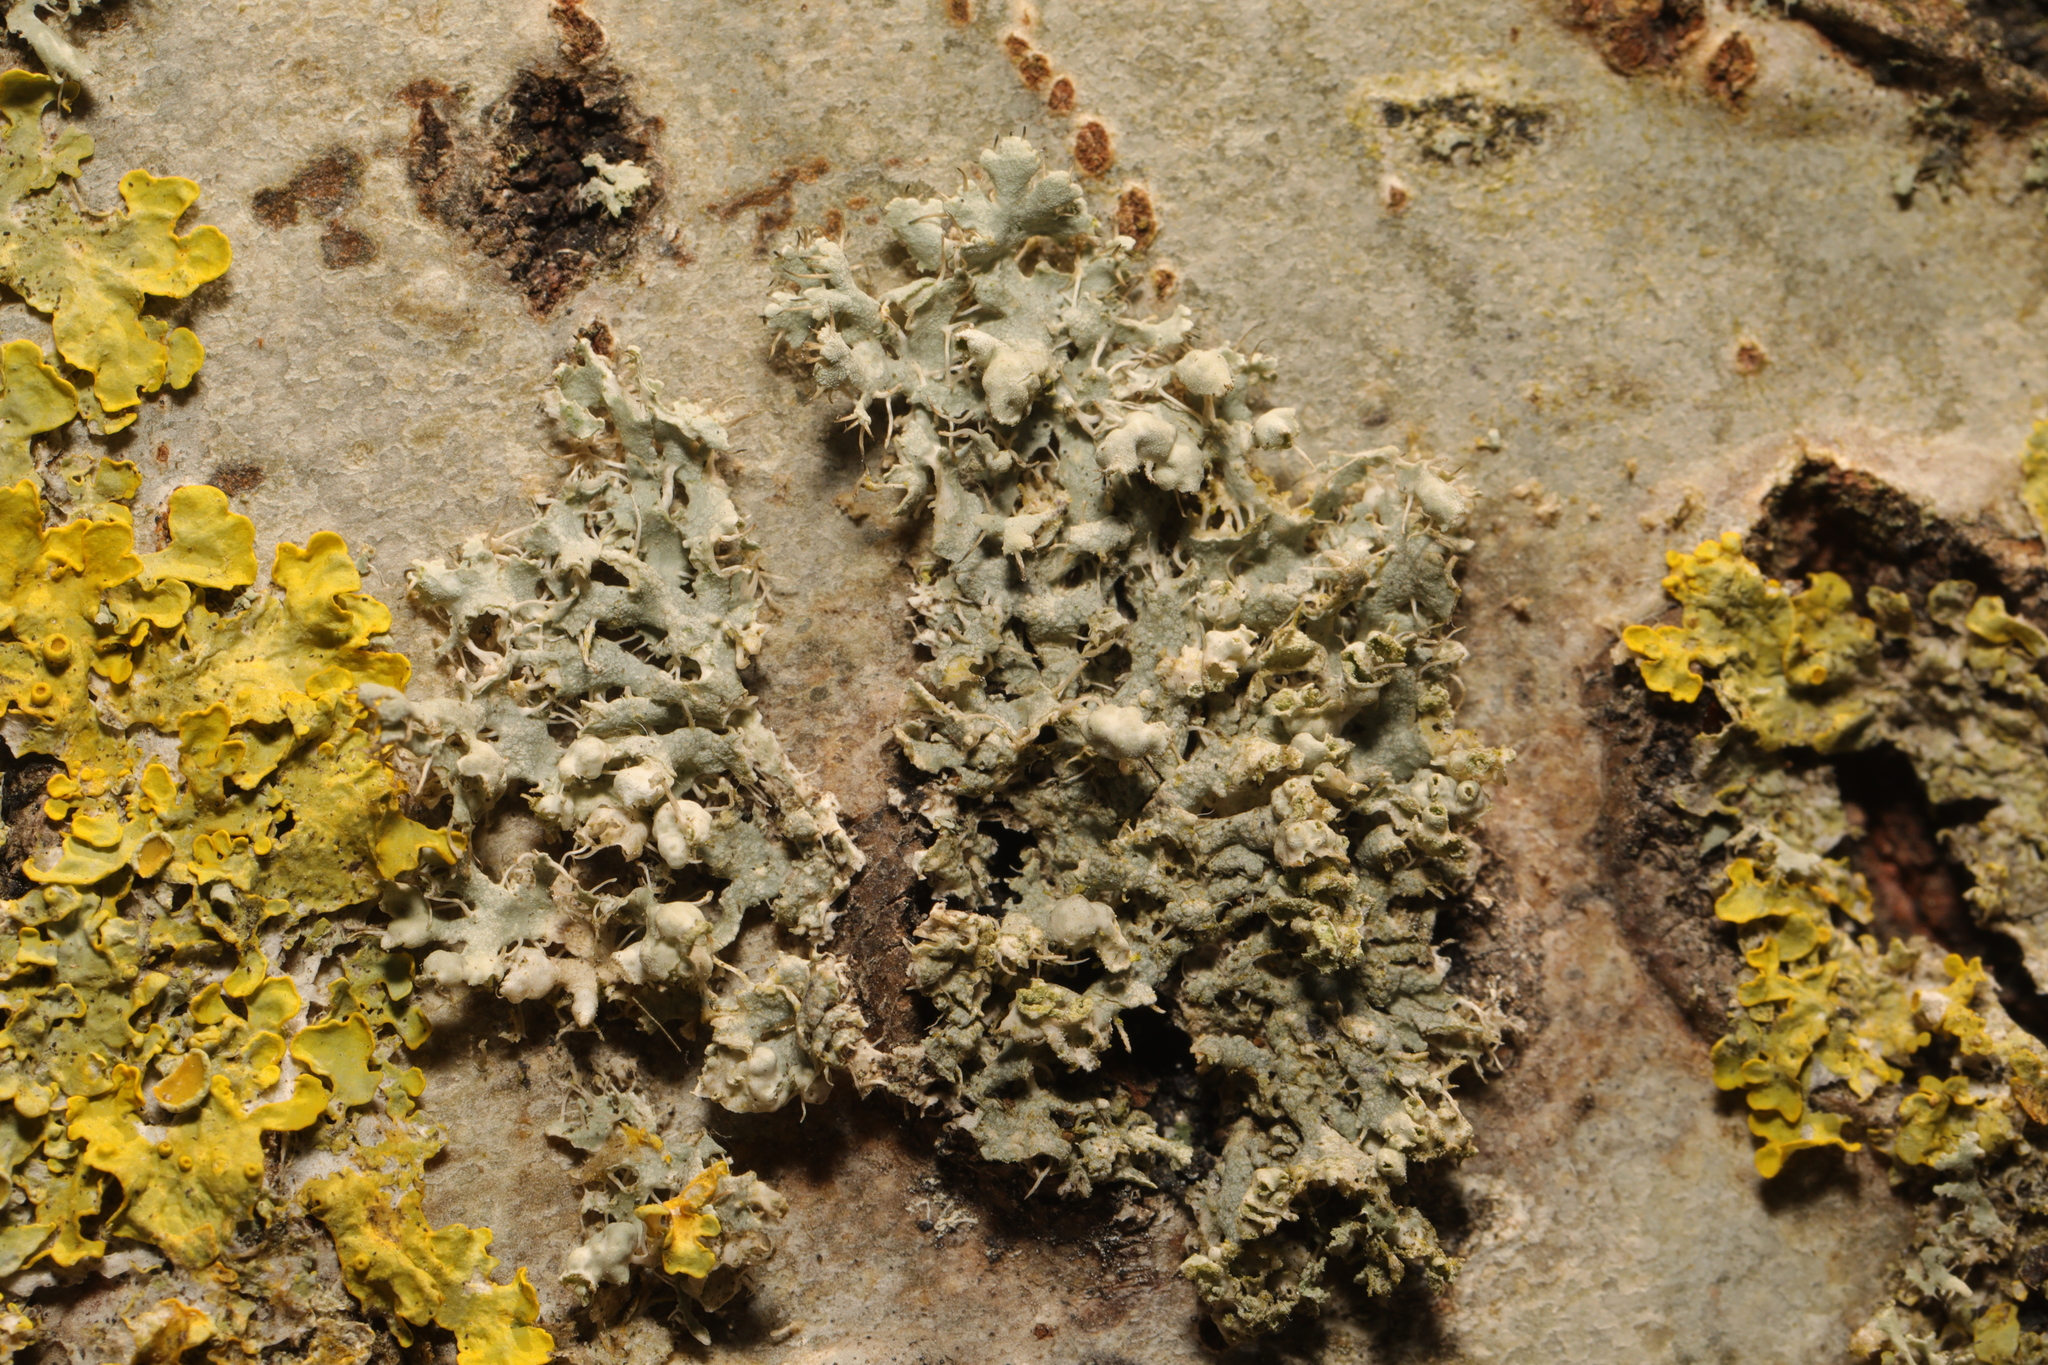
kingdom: Fungi
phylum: Ascomycota
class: Lecanoromycetes
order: Caliciales
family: Physciaceae
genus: Physcia
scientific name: Physcia adscendens
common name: Hooded rosette lichen
